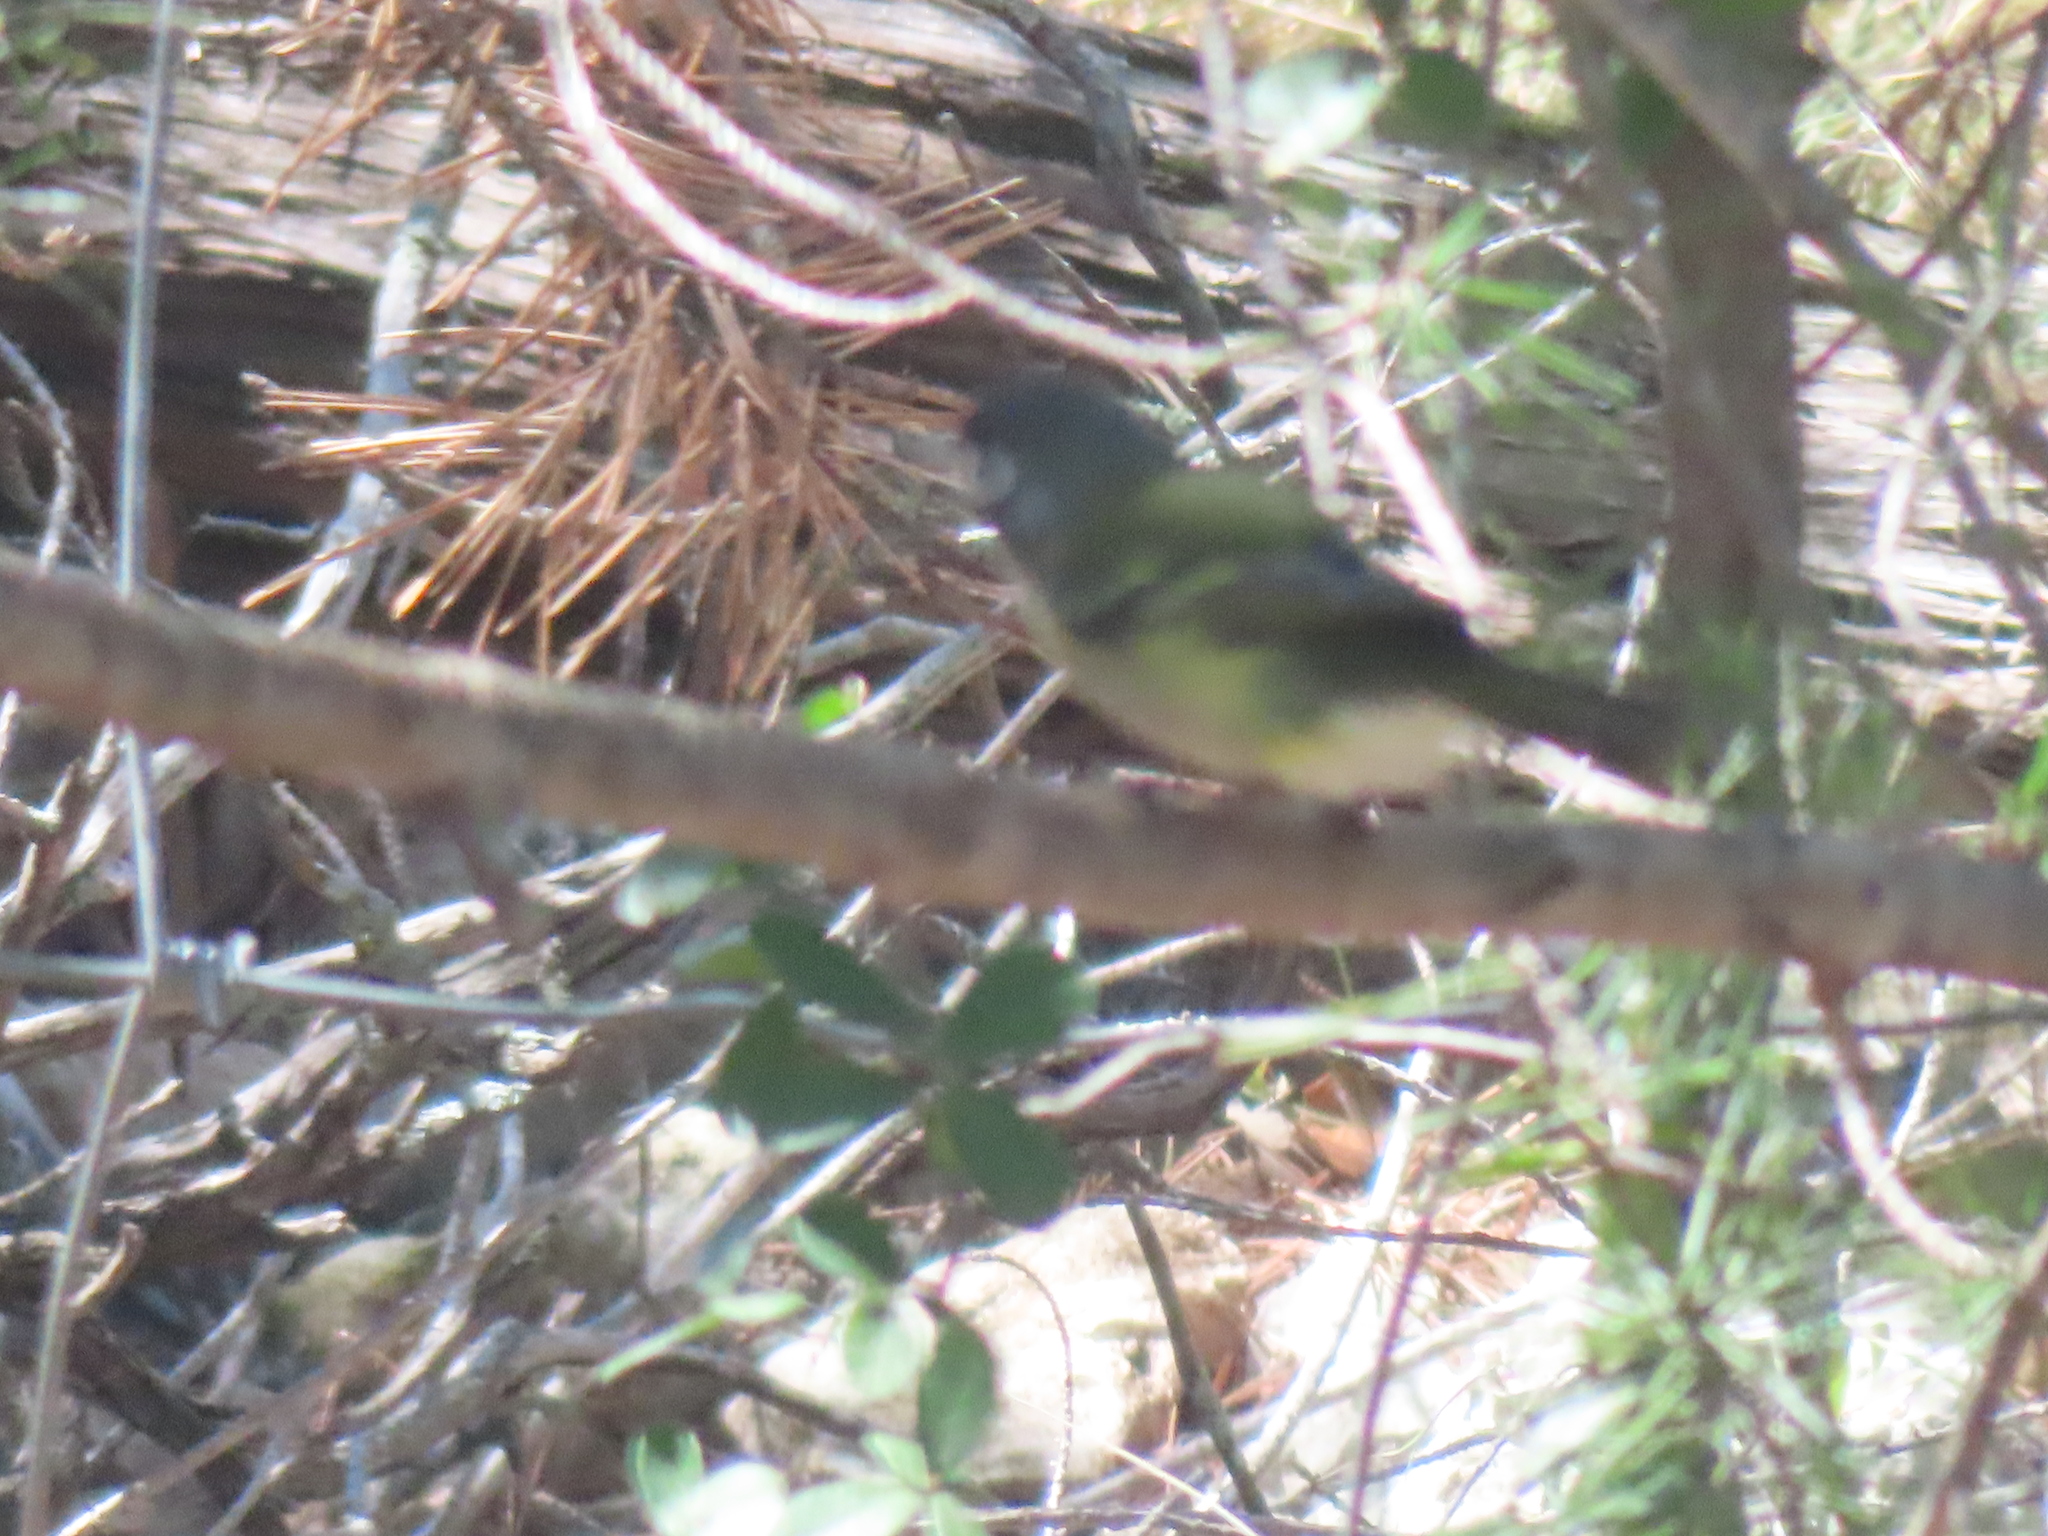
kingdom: Animalia
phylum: Chordata
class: Aves
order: Passeriformes
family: Vireonidae
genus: Vireo
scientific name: Vireo atricapilla
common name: Black-capped vireo
